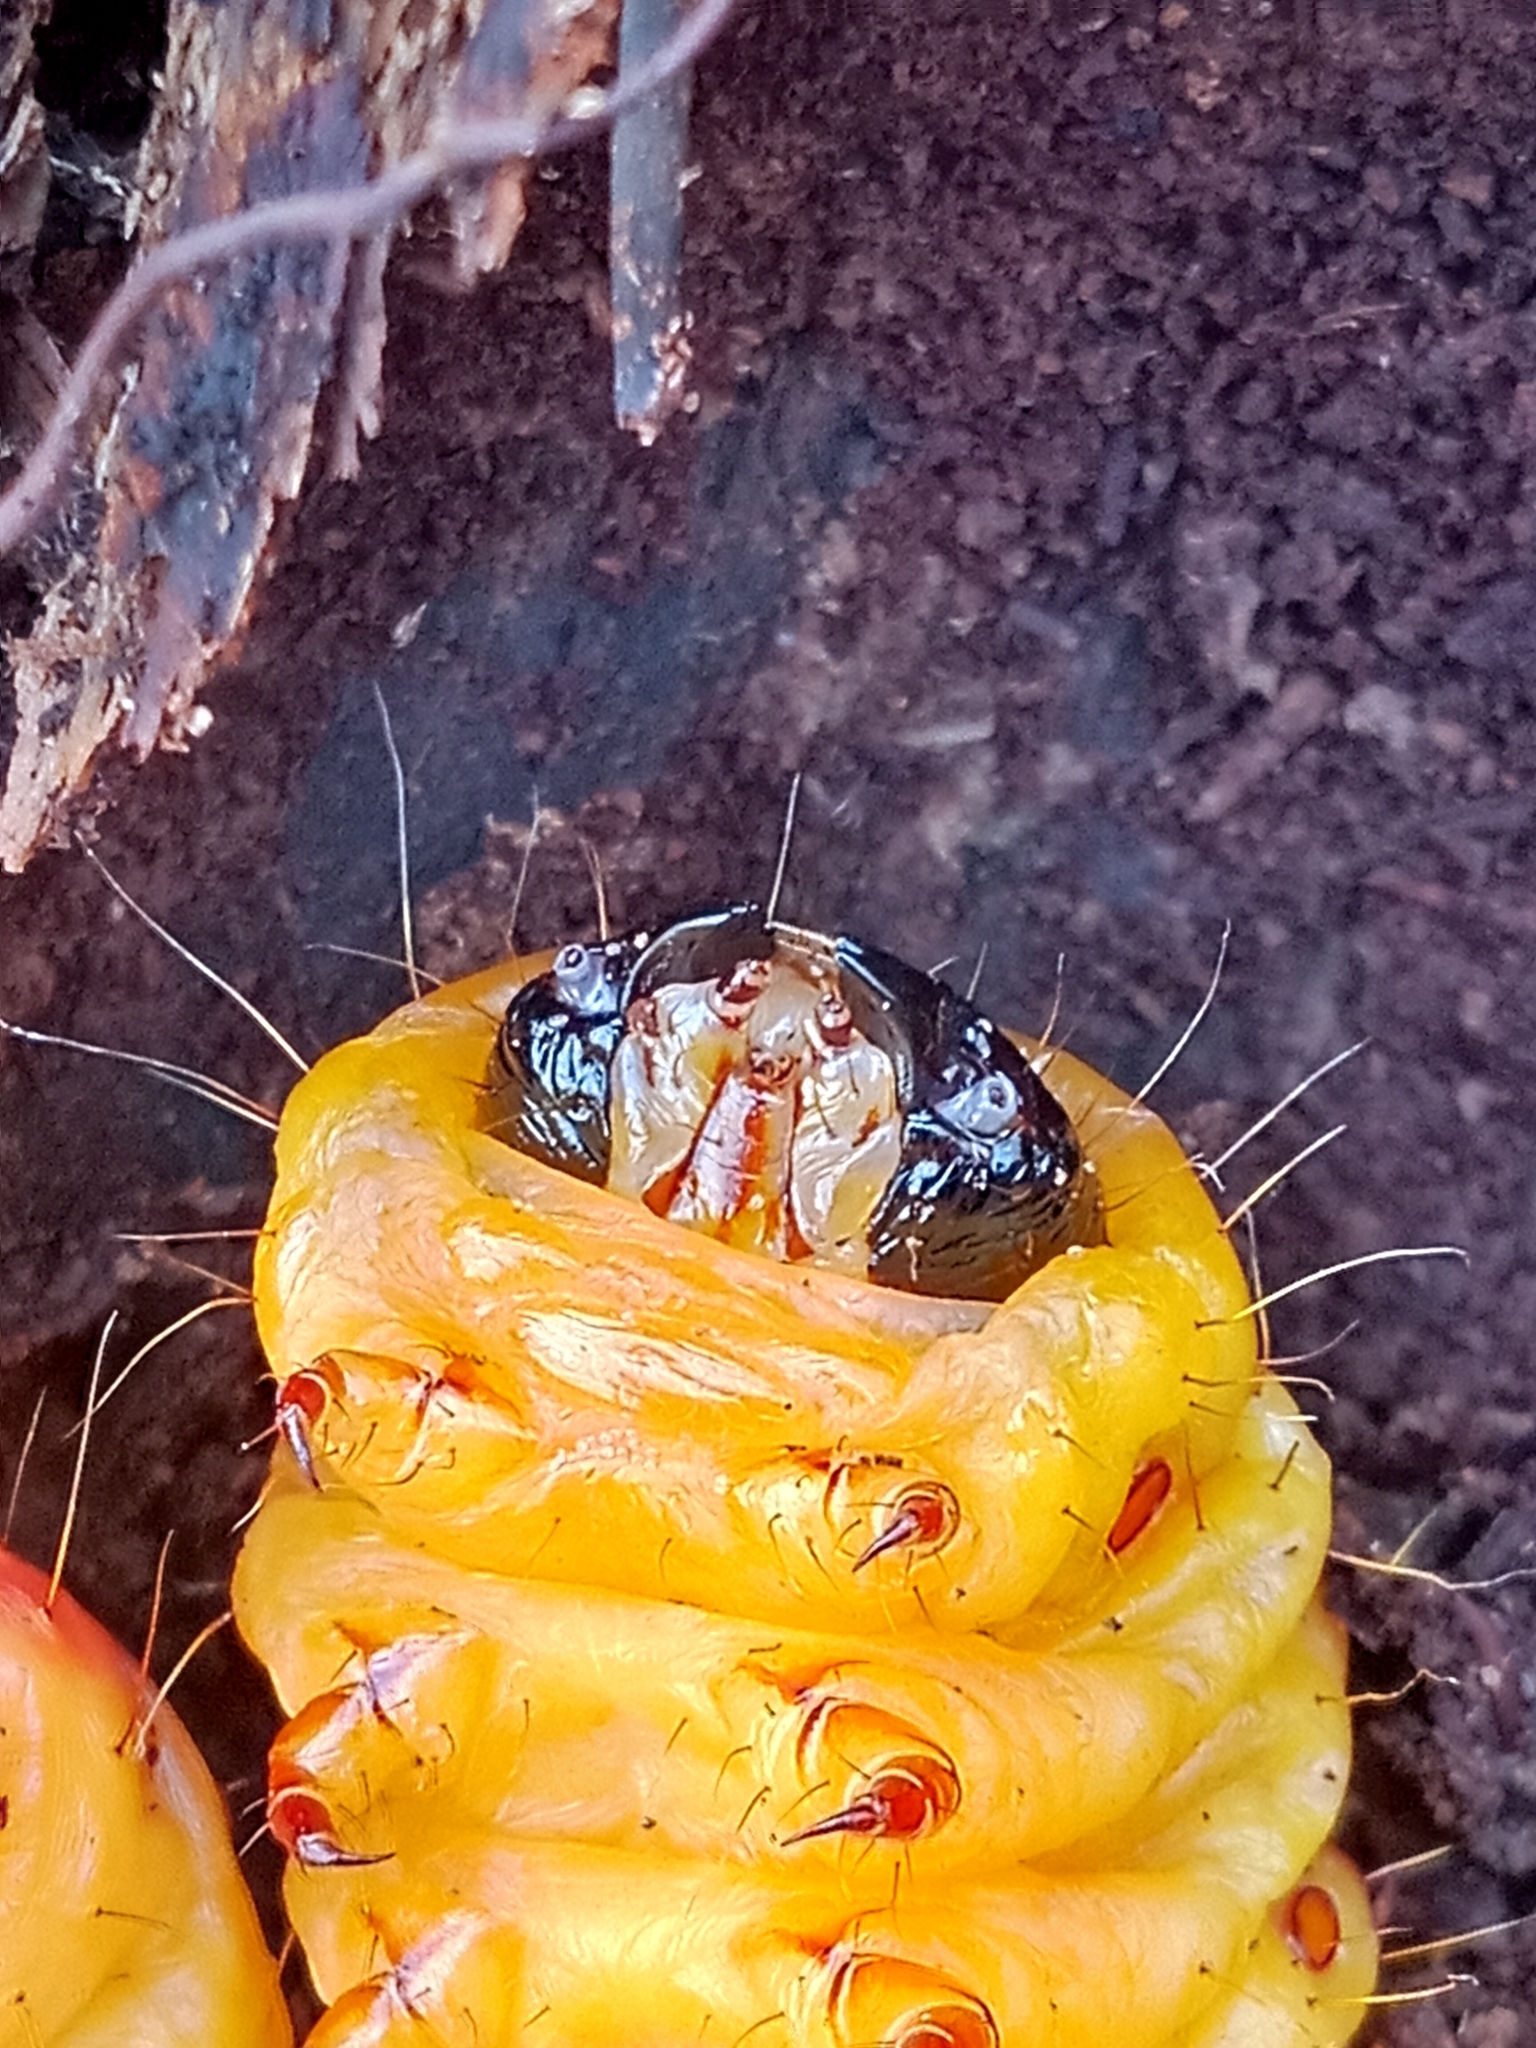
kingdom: Animalia
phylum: Arthropoda
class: Insecta
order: Lepidoptera
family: Cossidae
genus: Cossus
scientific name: Cossus cossus
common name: Goat moth
